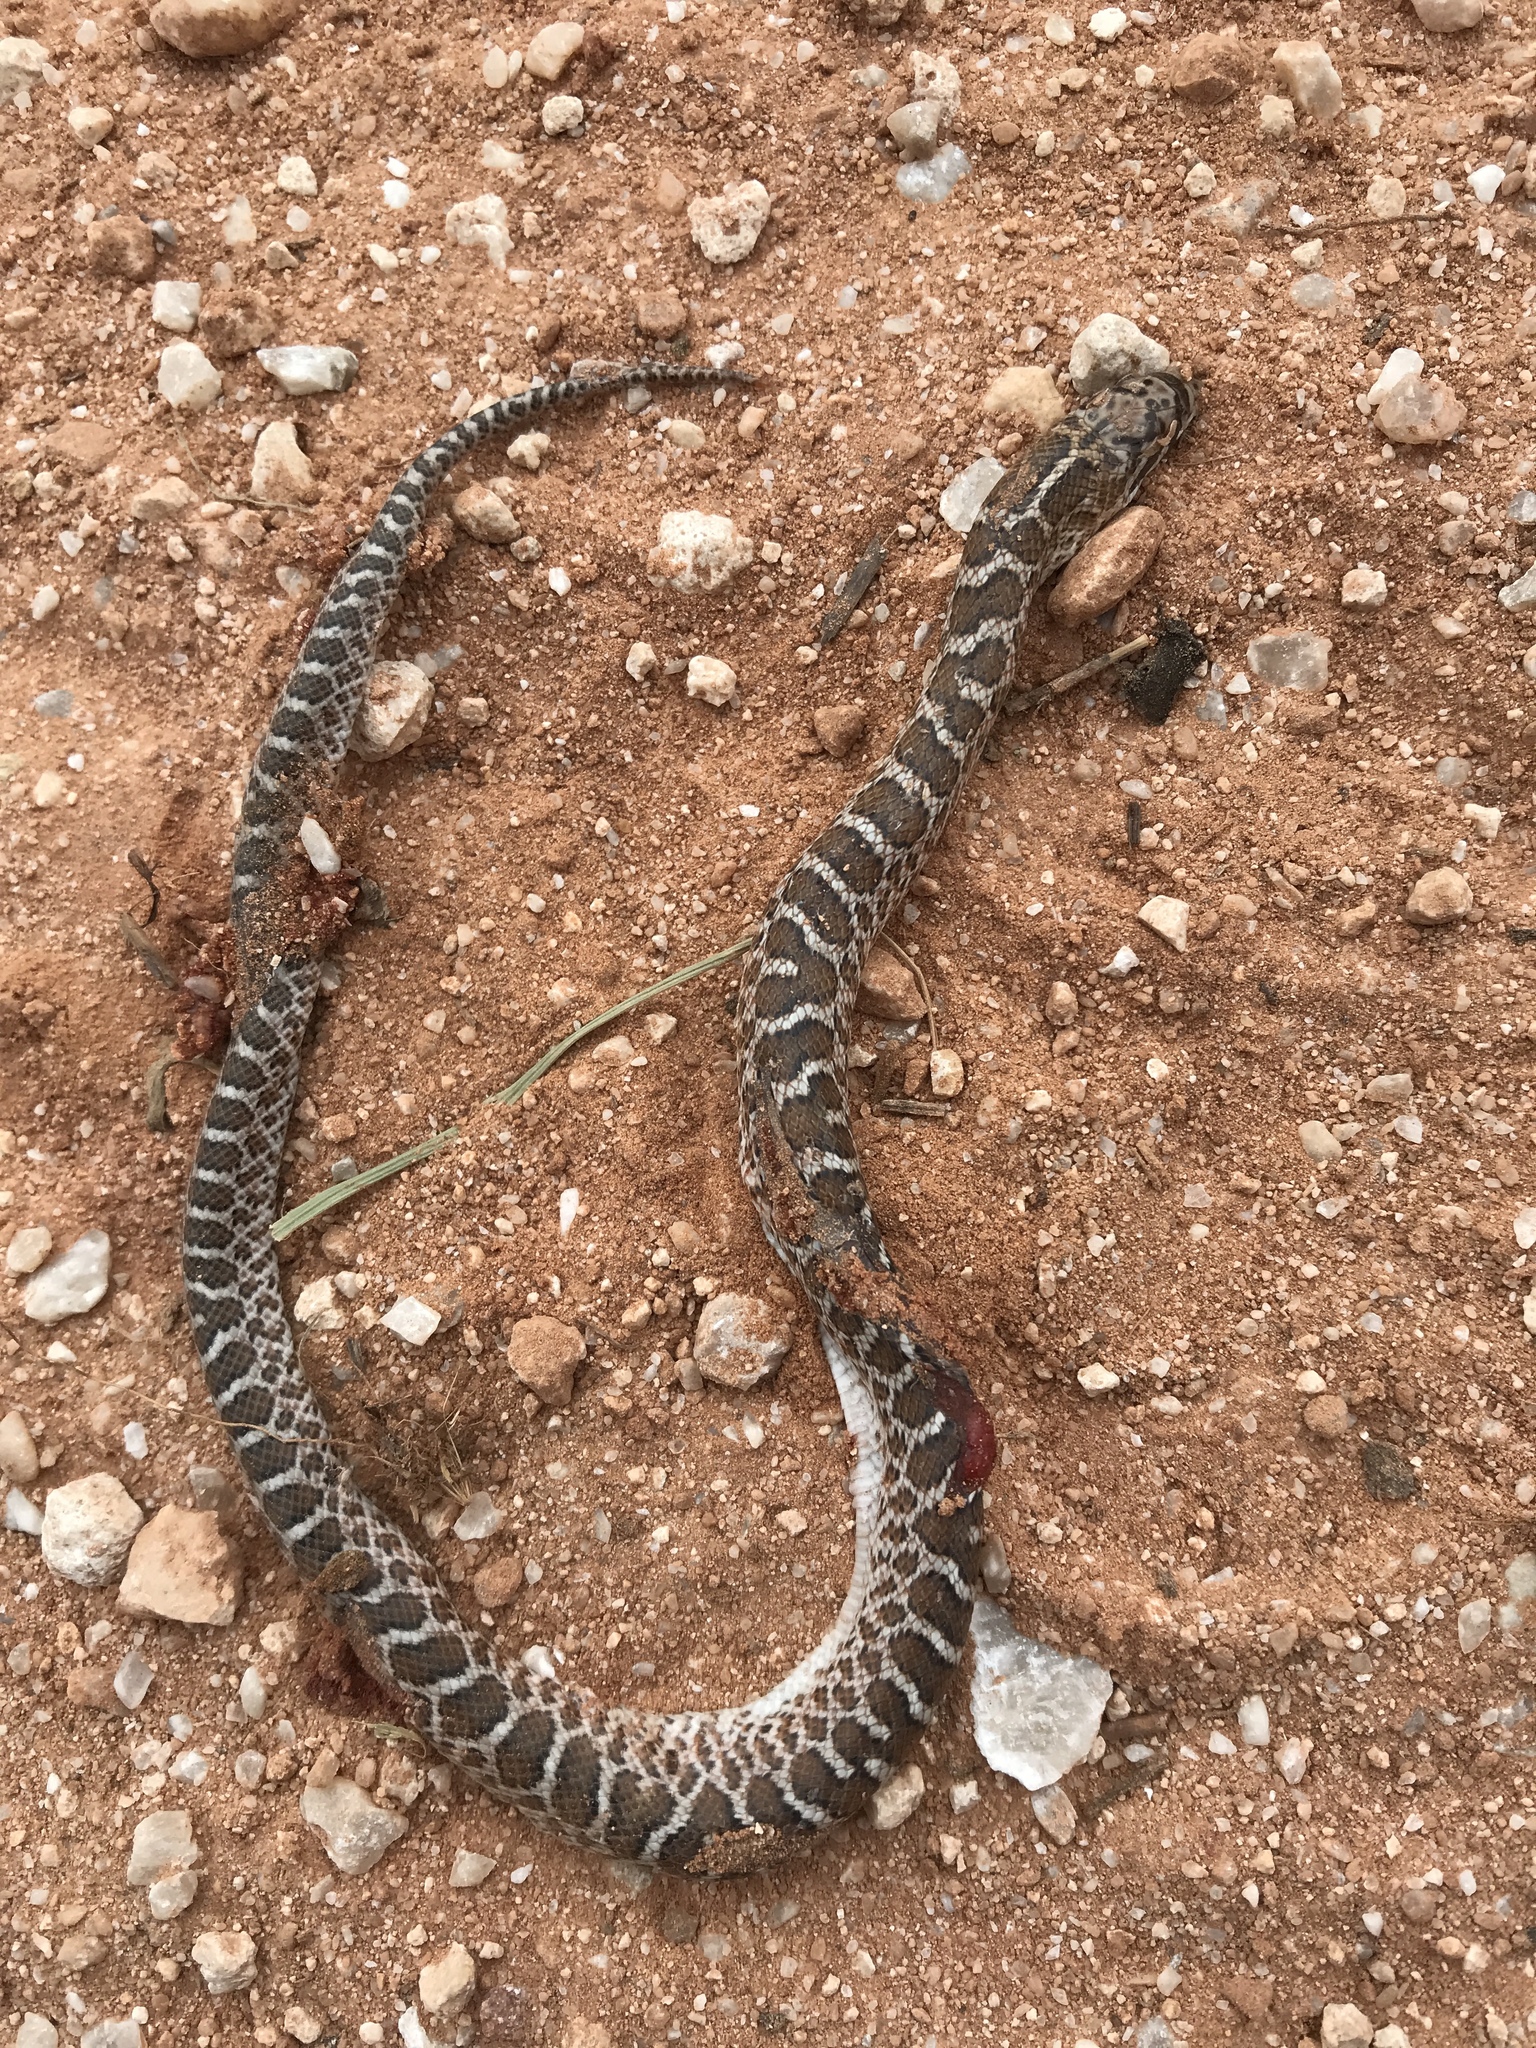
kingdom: Animalia
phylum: Chordata
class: Squamata
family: Colubridae
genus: Arizona
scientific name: Arizona elegans
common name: Glossy snake
